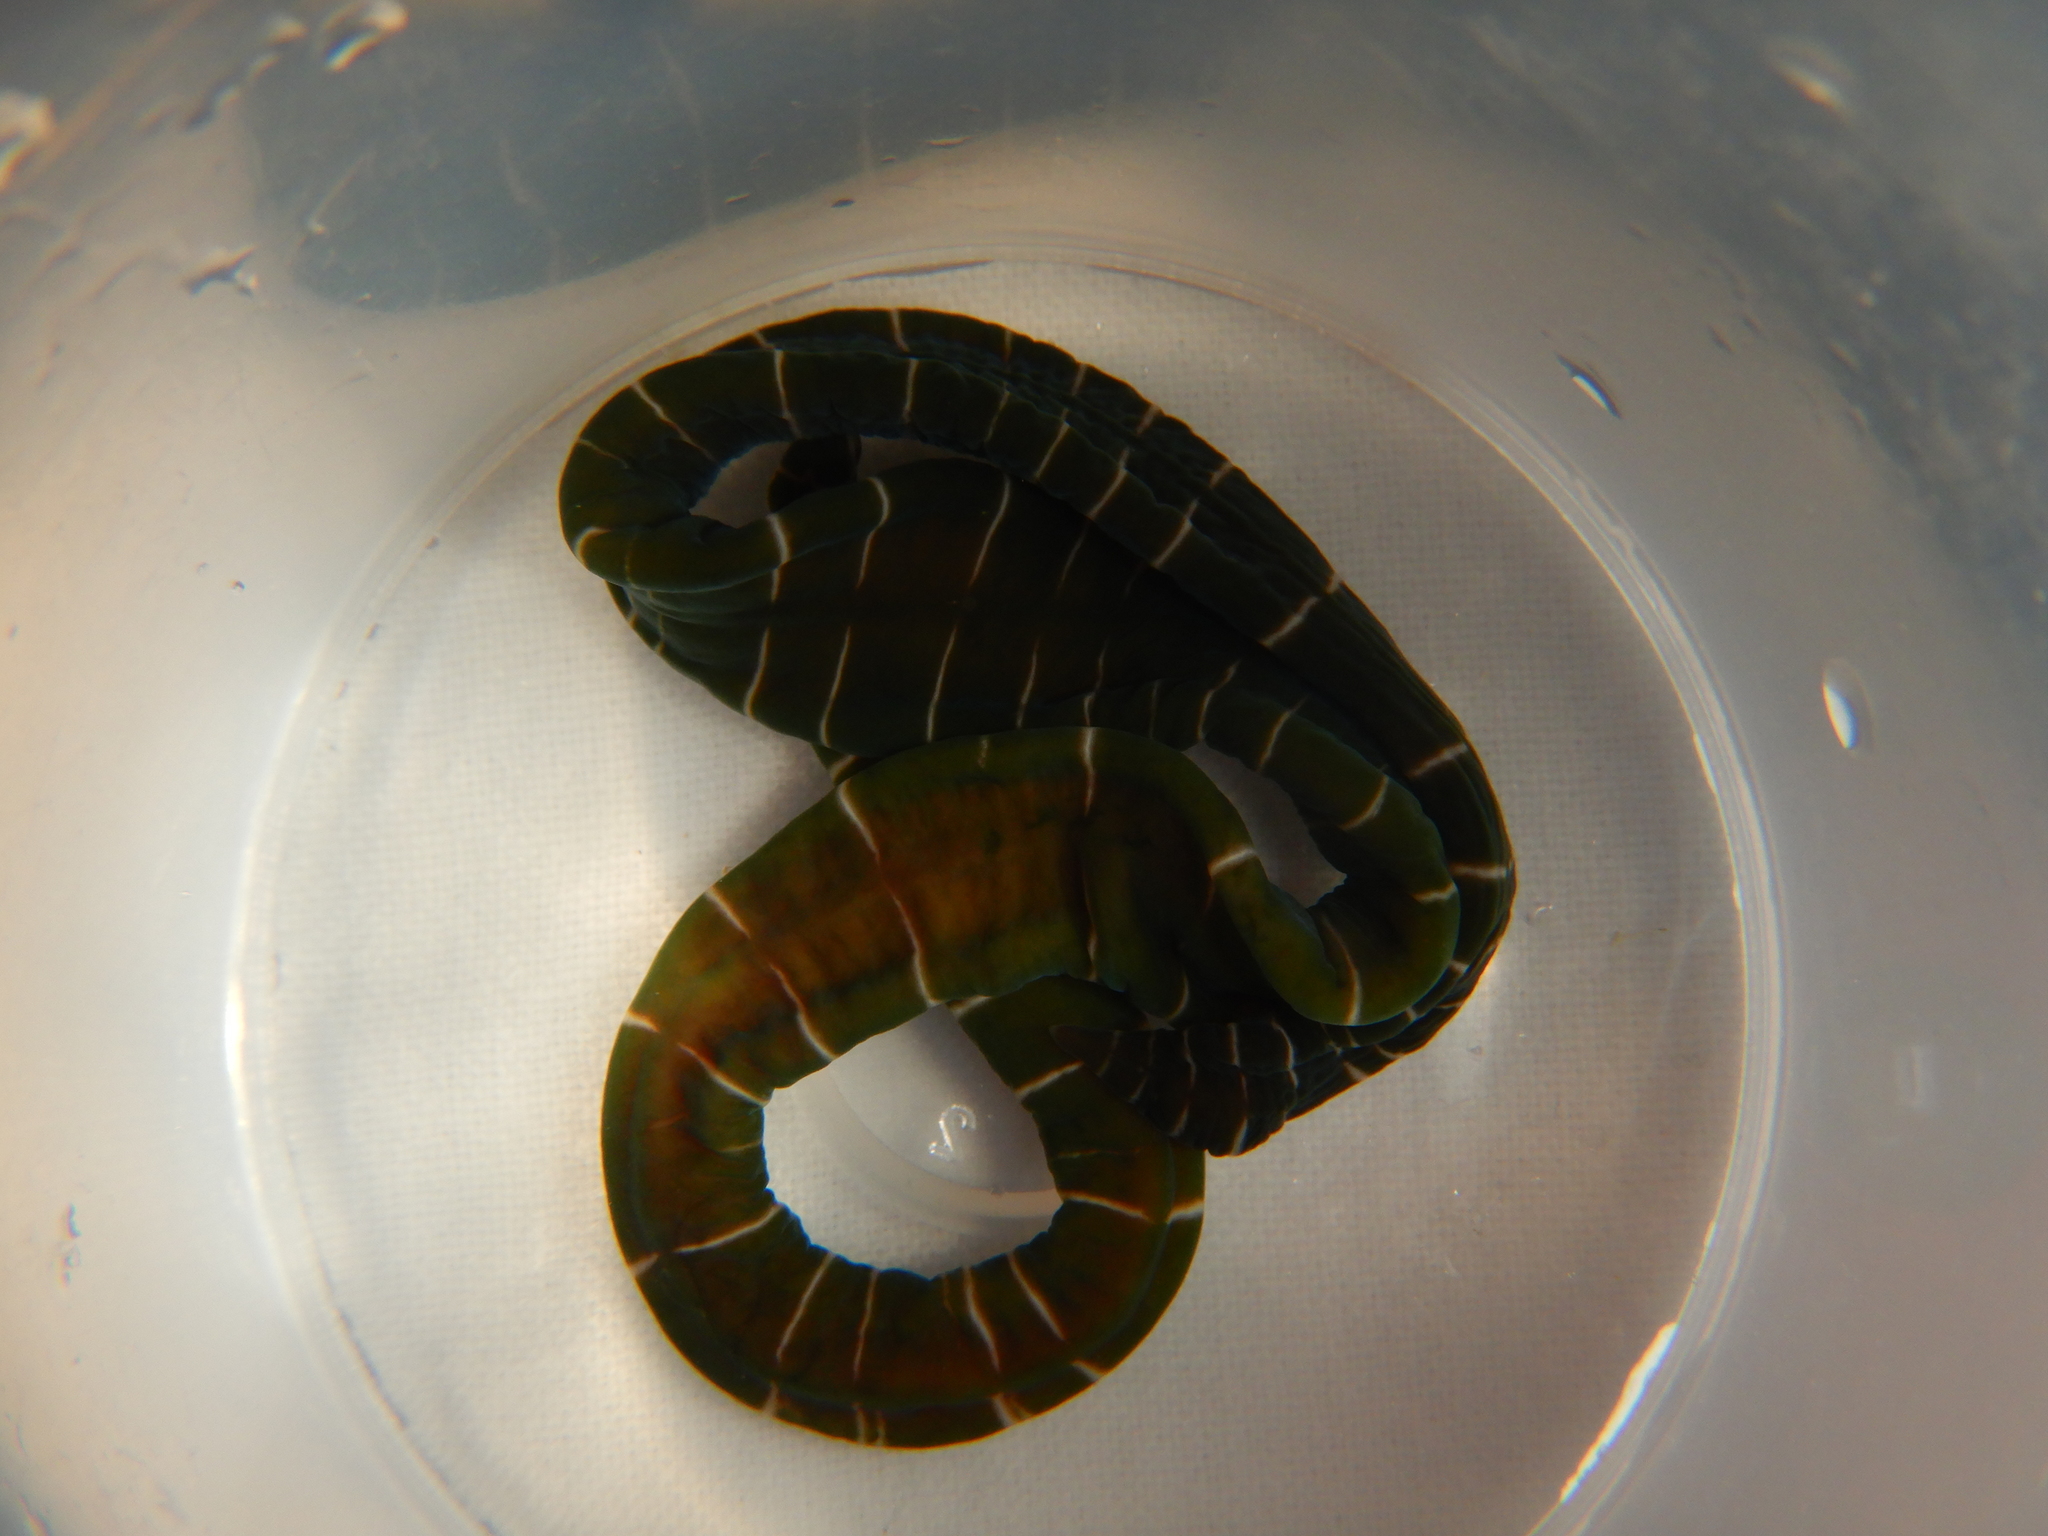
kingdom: Animalia
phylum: Nemertea
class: Pilidiophora
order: Heteronemertea
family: Lineidae
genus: Notospermus
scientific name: Notospermus geniculatus
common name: Banded bootlace
